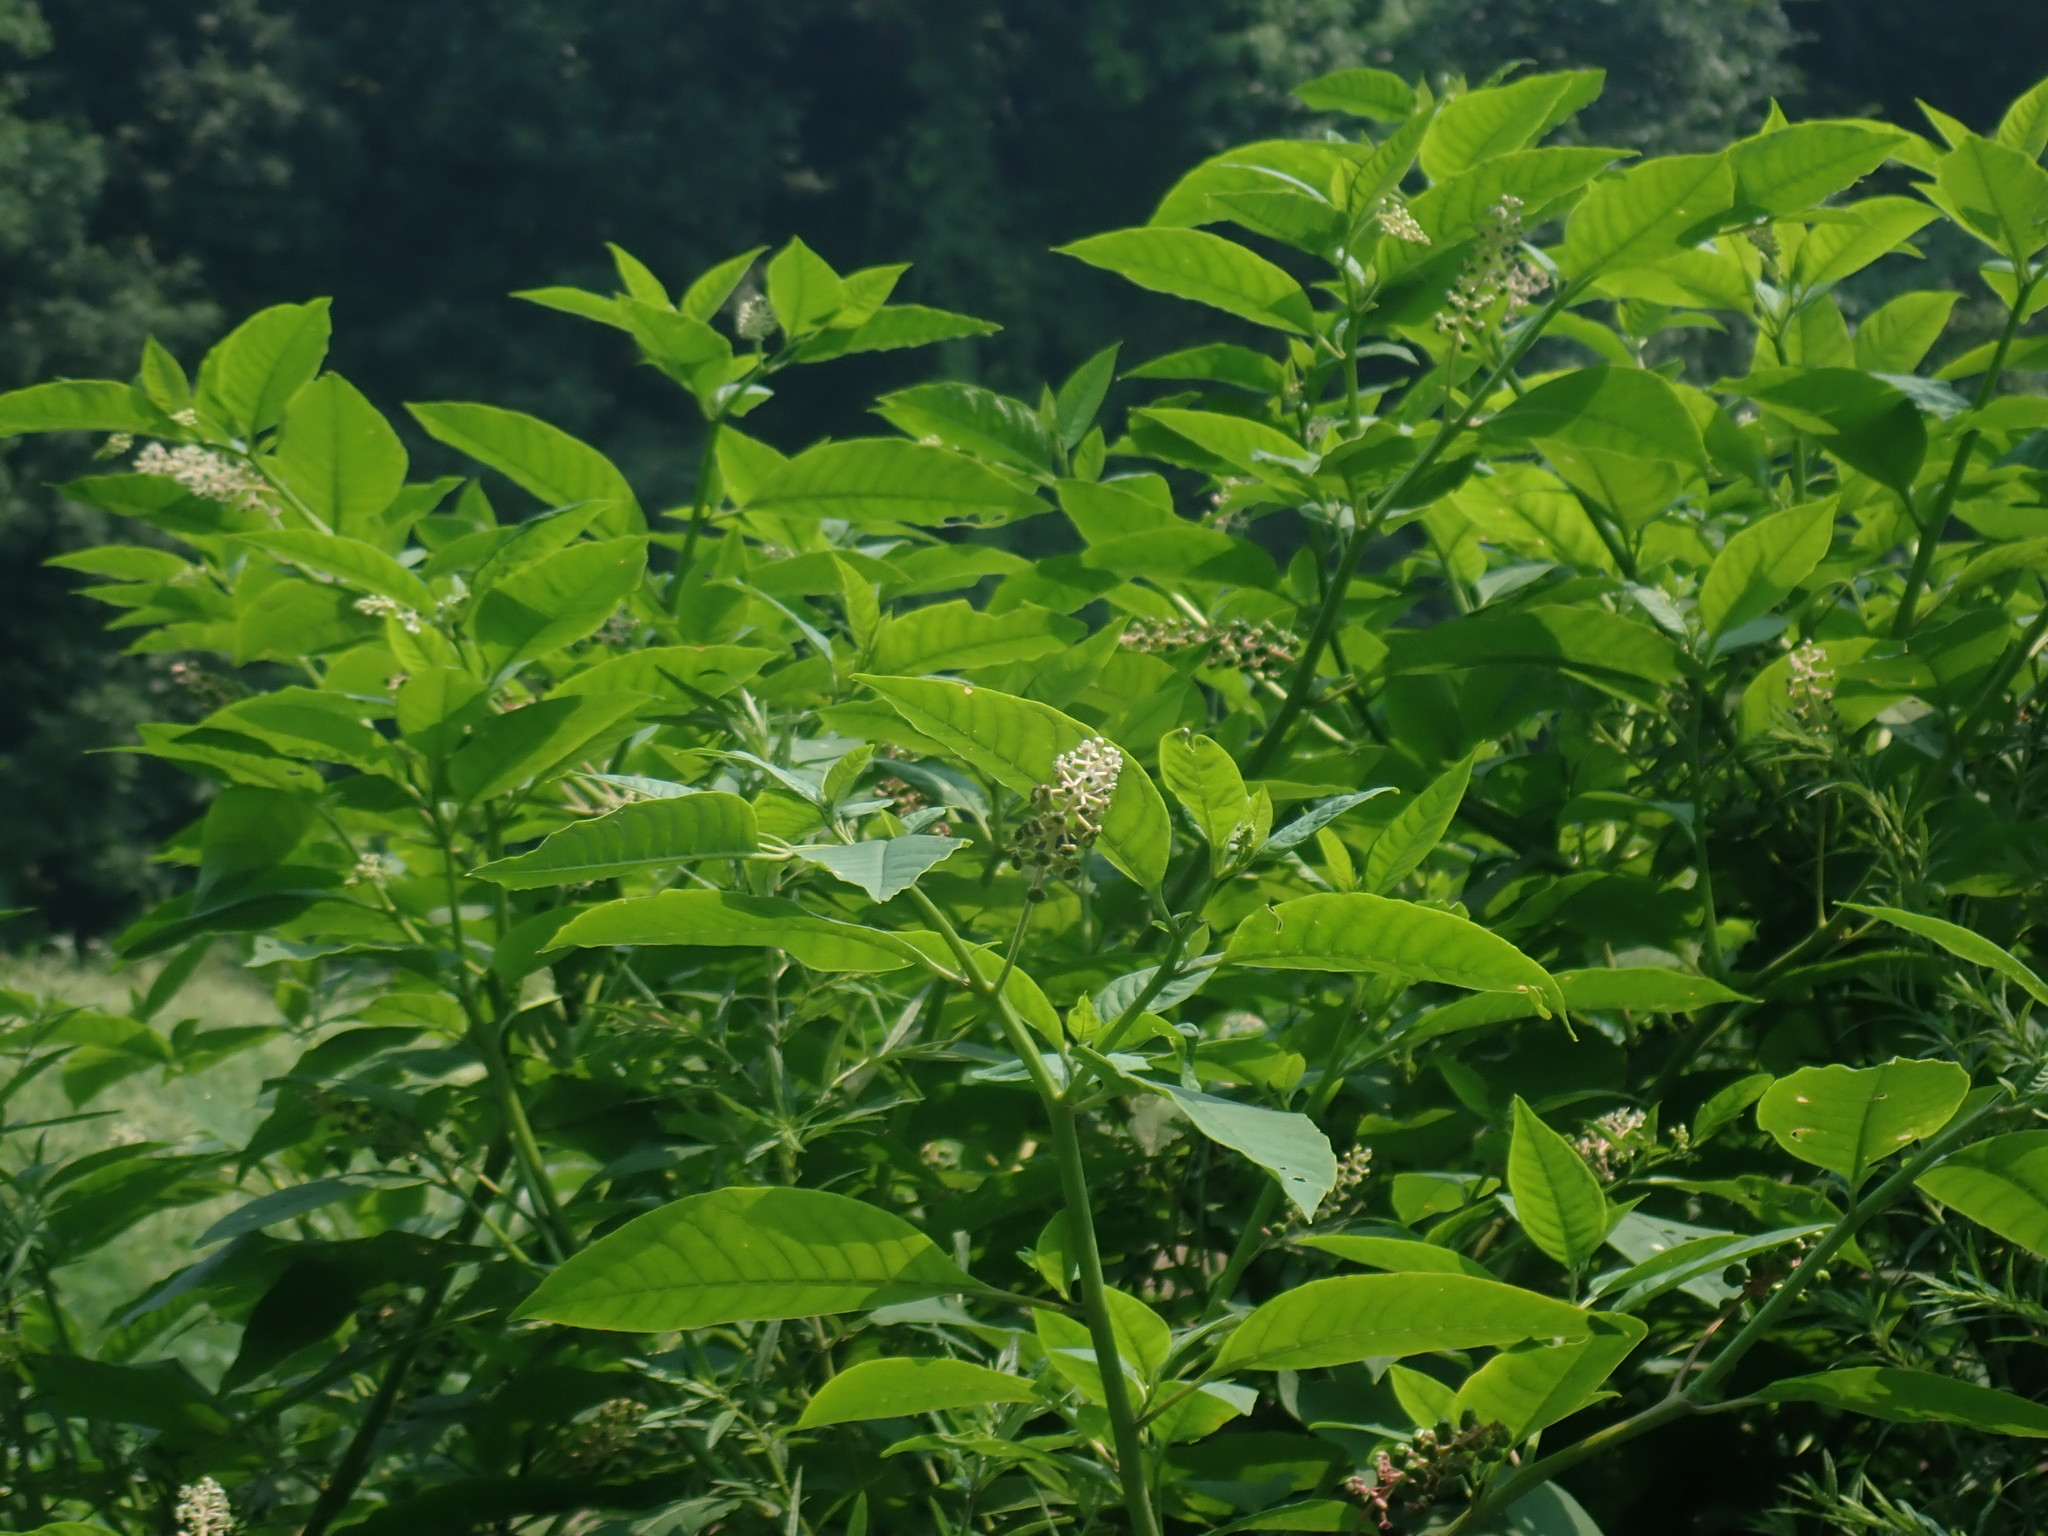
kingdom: Plantae
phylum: Tracheophyta
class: Magnoliopsida
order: Caryophyllales
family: Phytolaccaceae
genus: Phytolacca
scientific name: Phytolacca americana
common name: American pokeweed
